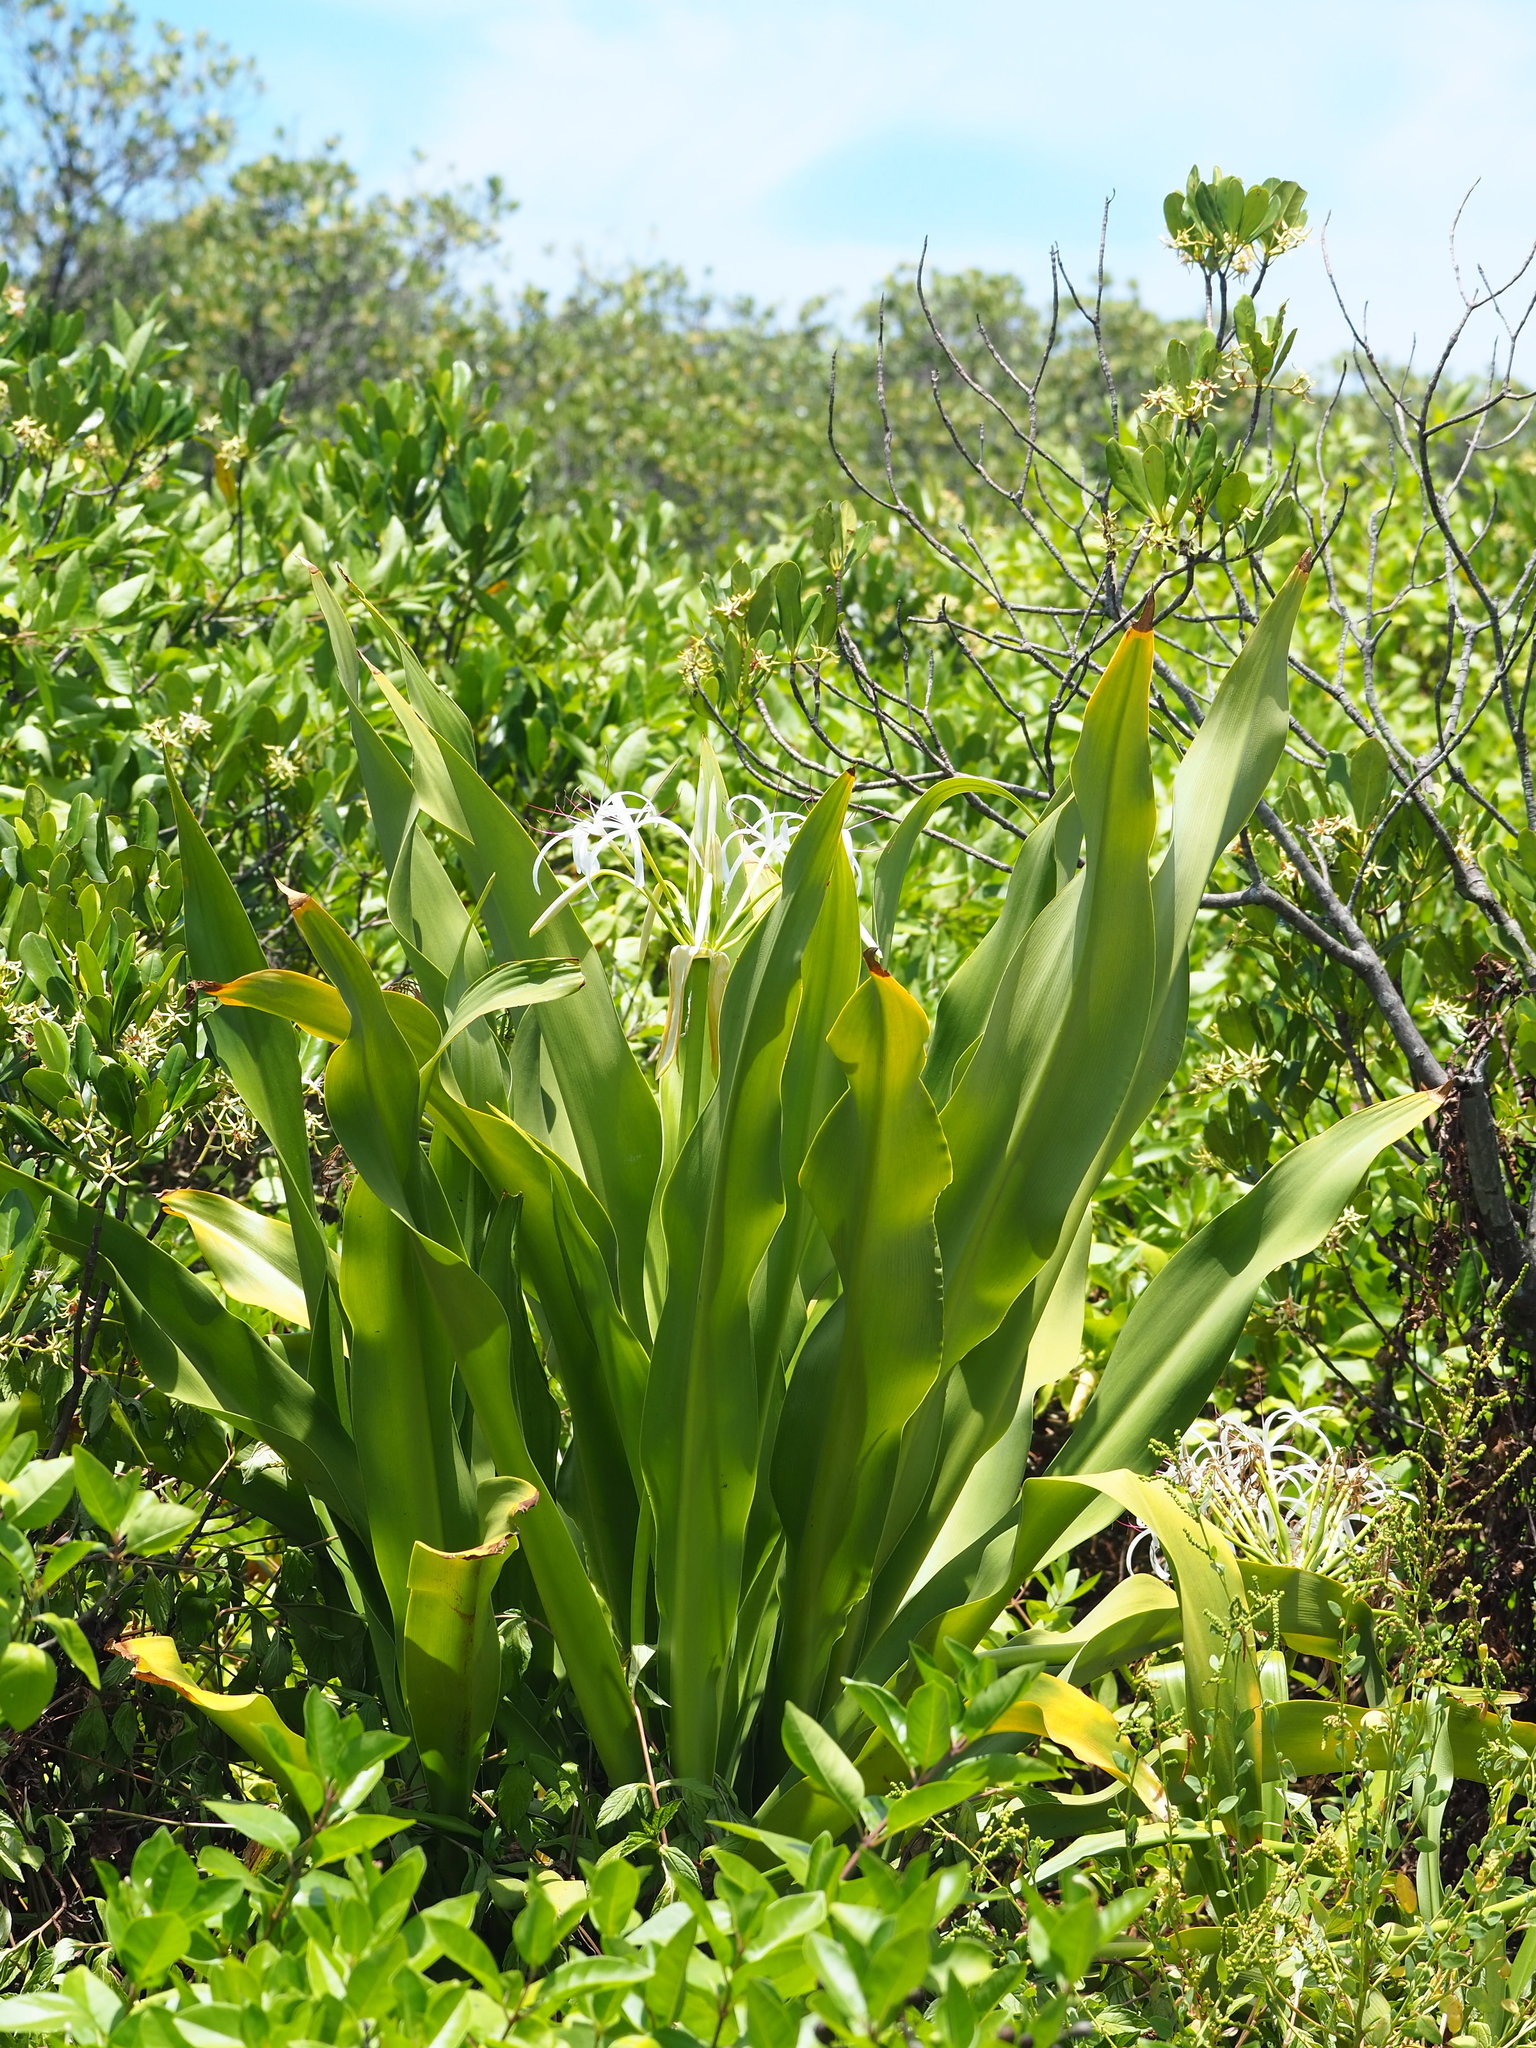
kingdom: Plantae
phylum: Tracheophyta
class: Liliopsida
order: Asparagales
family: Amaryllidaceae
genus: Crinum
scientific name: Crinum asiaticum
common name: Poisonbulb
